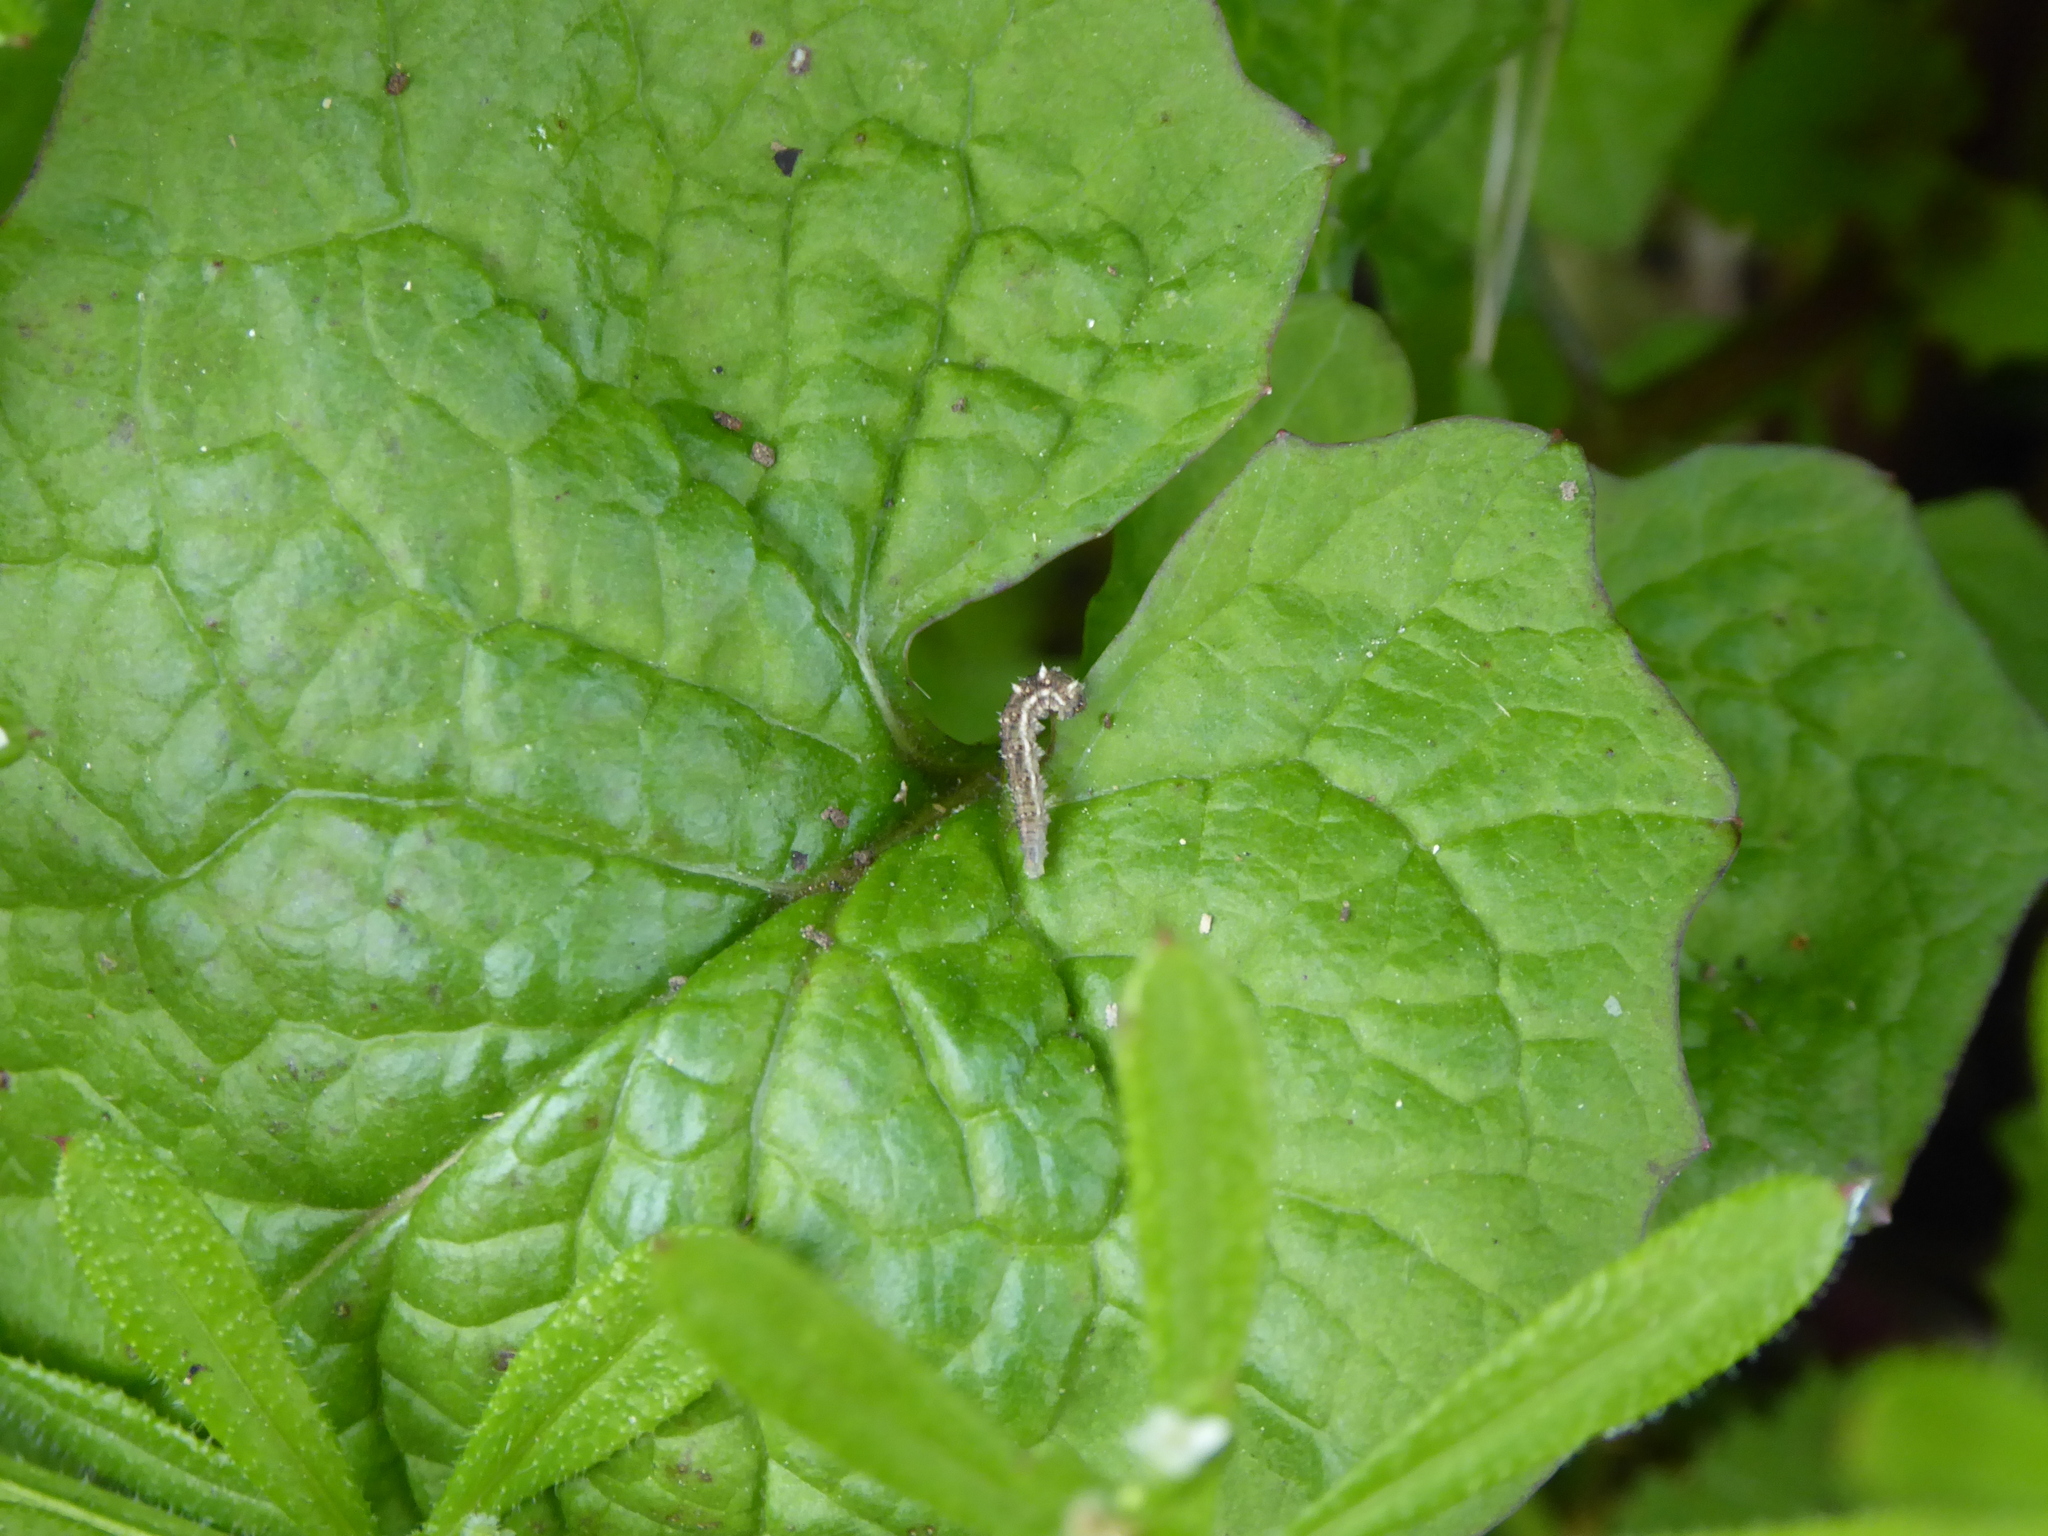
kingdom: Animalia
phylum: Arthropoda
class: Insecta
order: Diptera
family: Syrphidae
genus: Eupeodes
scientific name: Eupeodes
